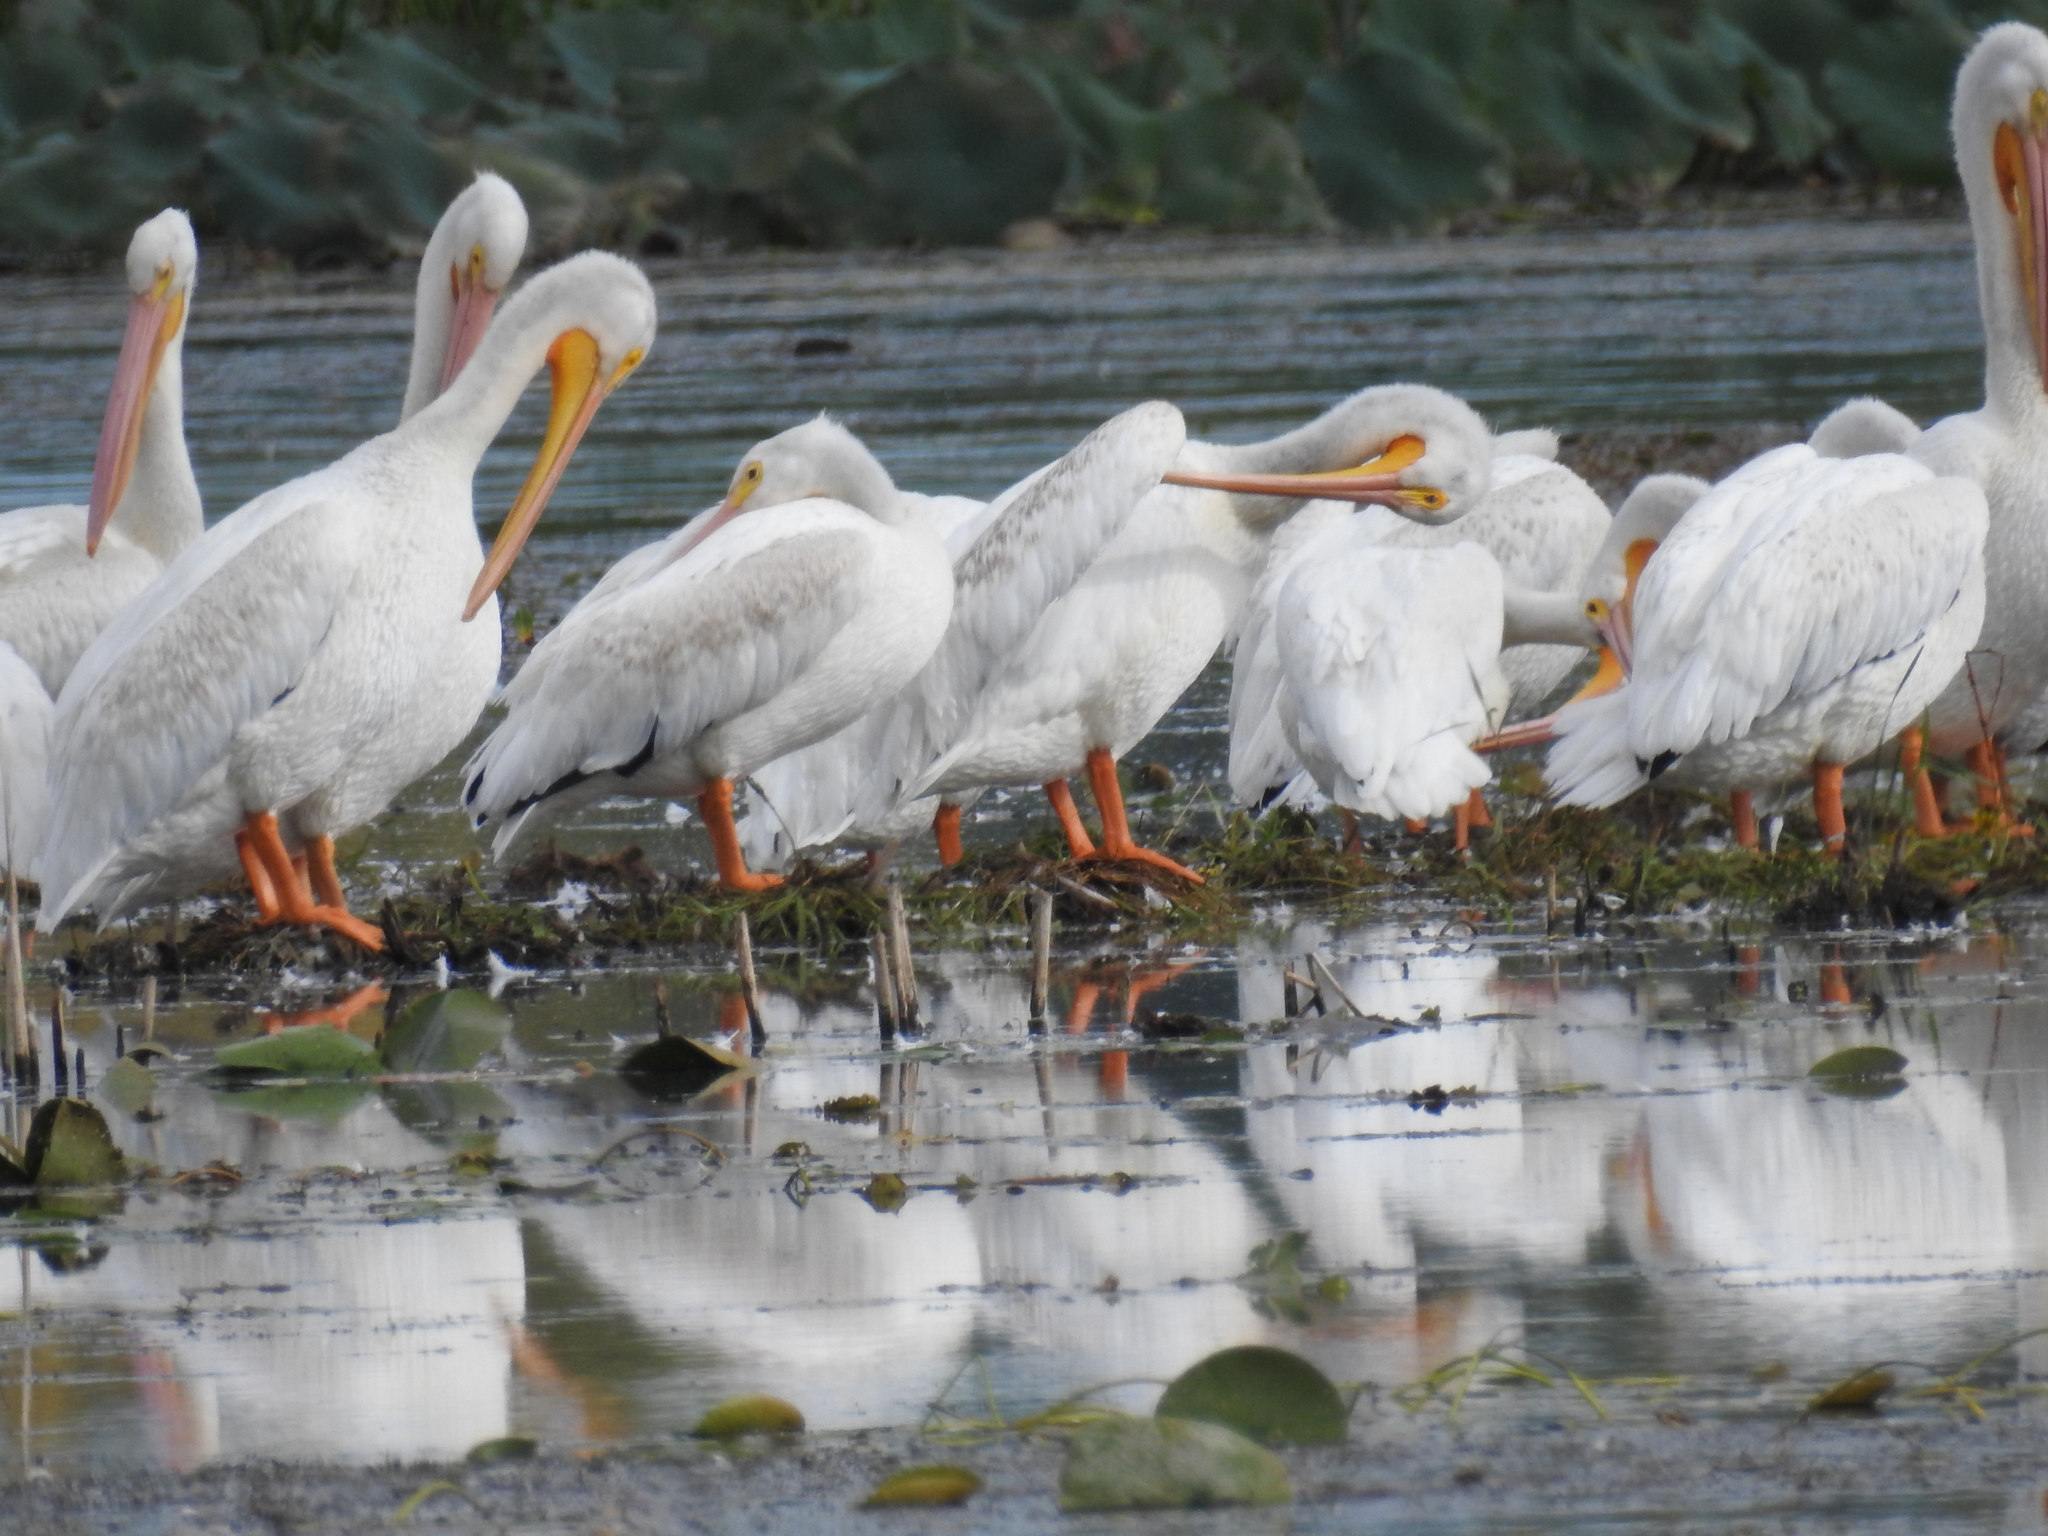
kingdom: Animalia
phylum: Chordata
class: Aves
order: Pelecaniformes
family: Pelecanidae
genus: Pelecanus
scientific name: Pelecanus erythrorhynchos
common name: American white pelican
